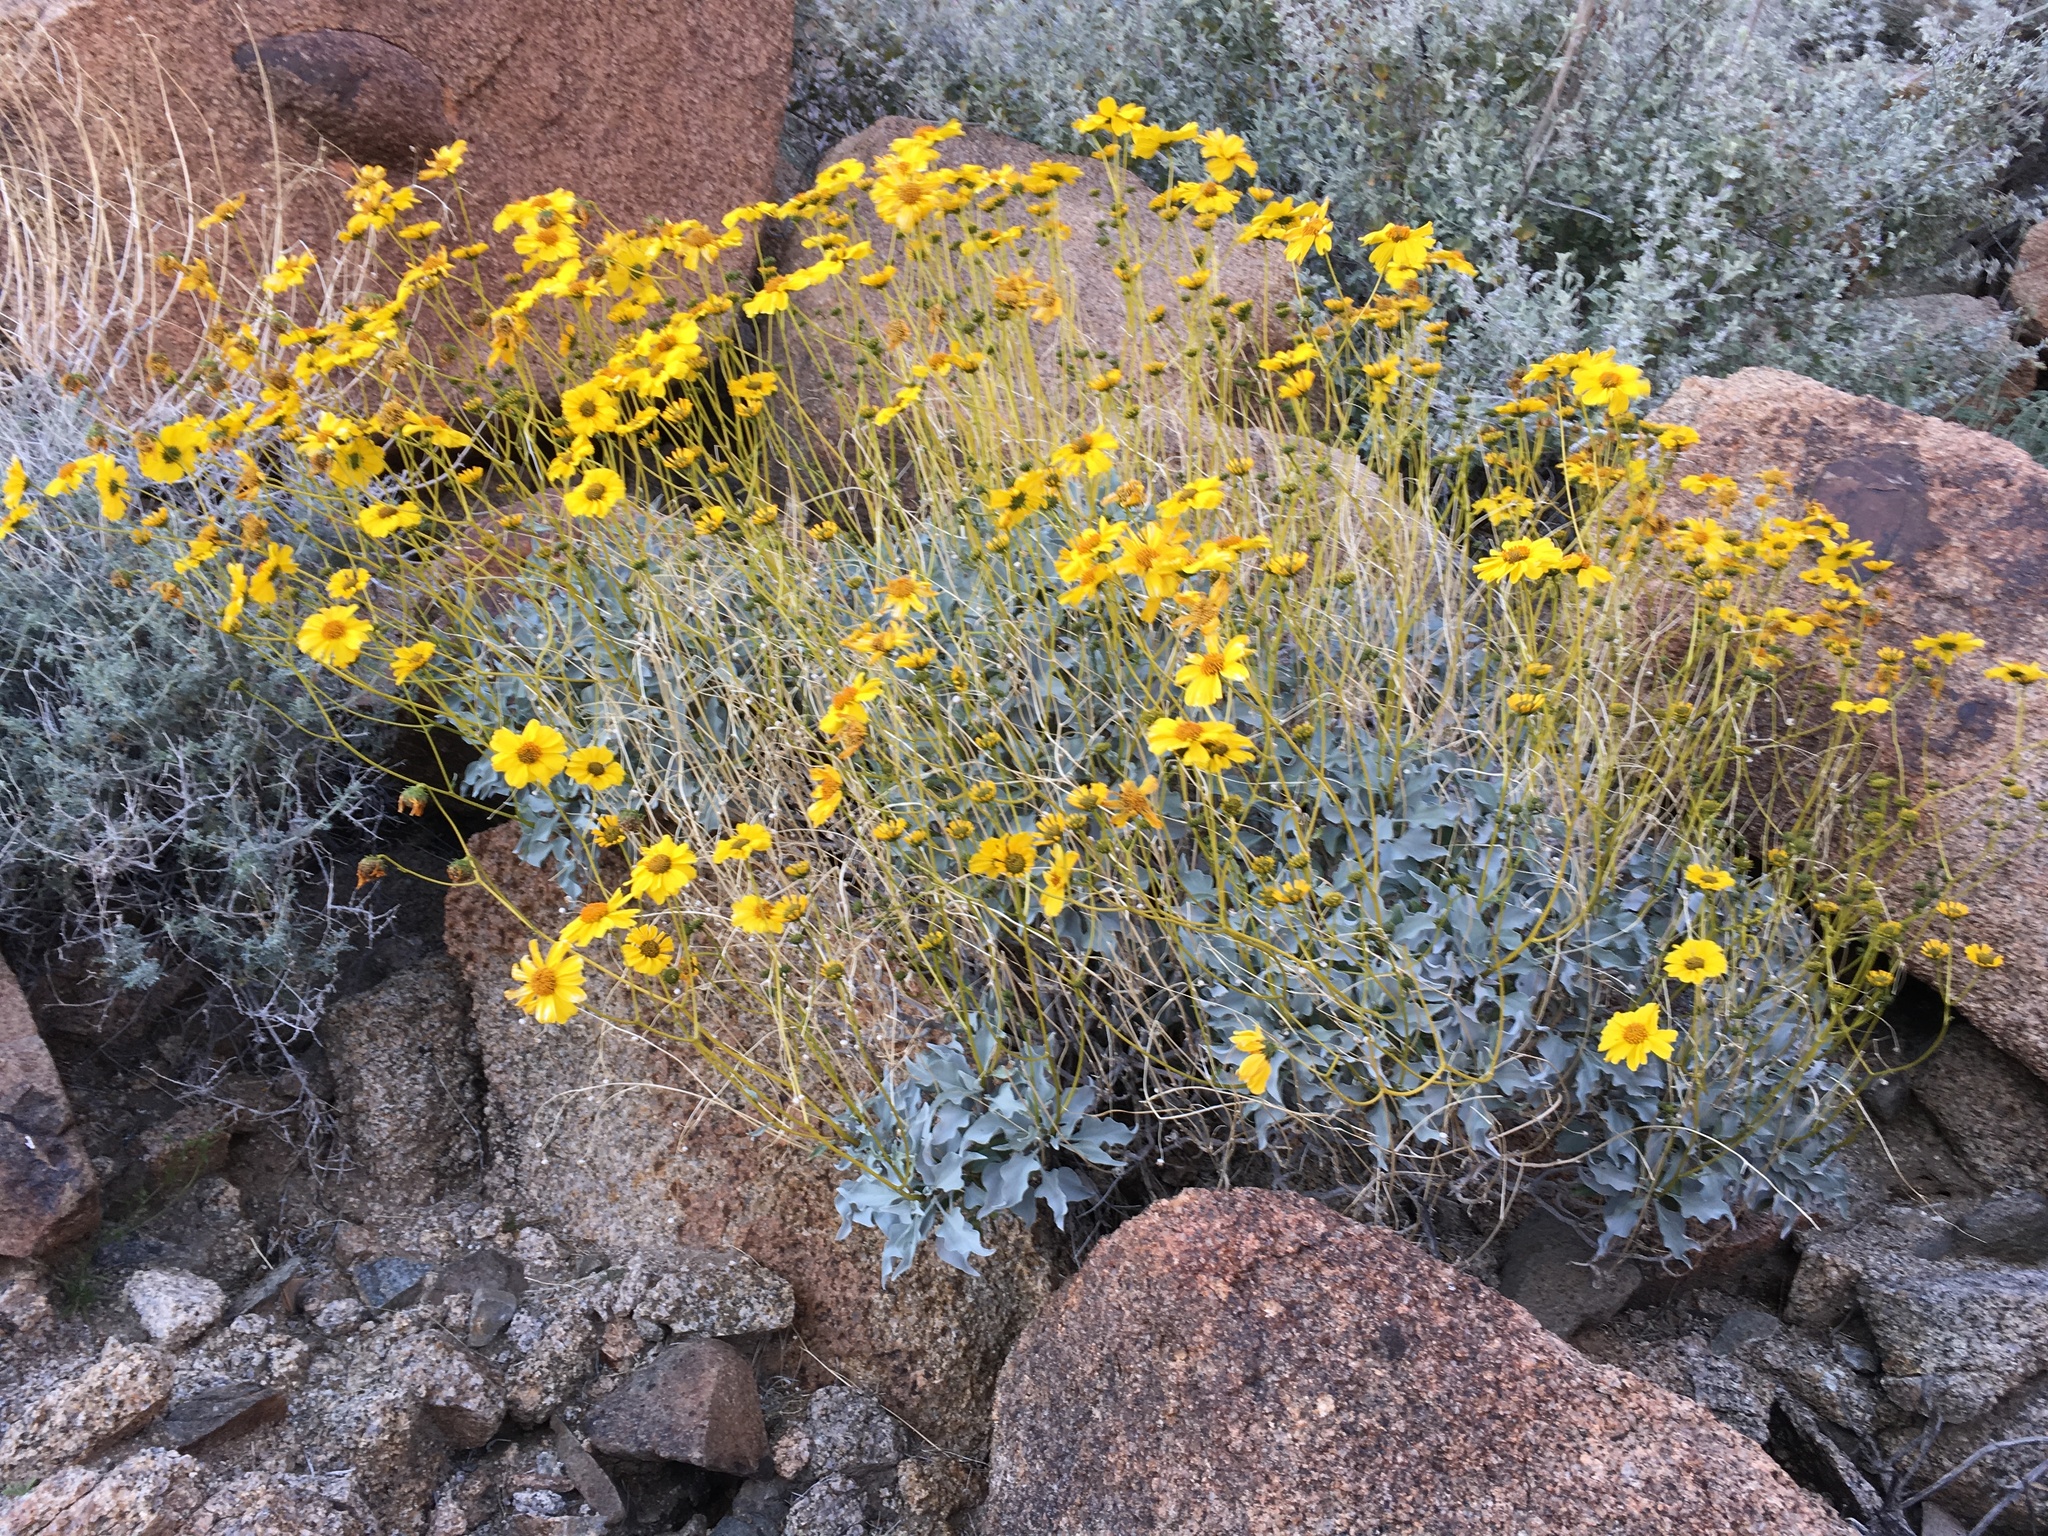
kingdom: Plantae
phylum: Tracheophyta
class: Magnoliopsida
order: Asterales
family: Asteraceae
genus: Encelia
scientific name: Encelia farinosa
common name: Brittlebush
